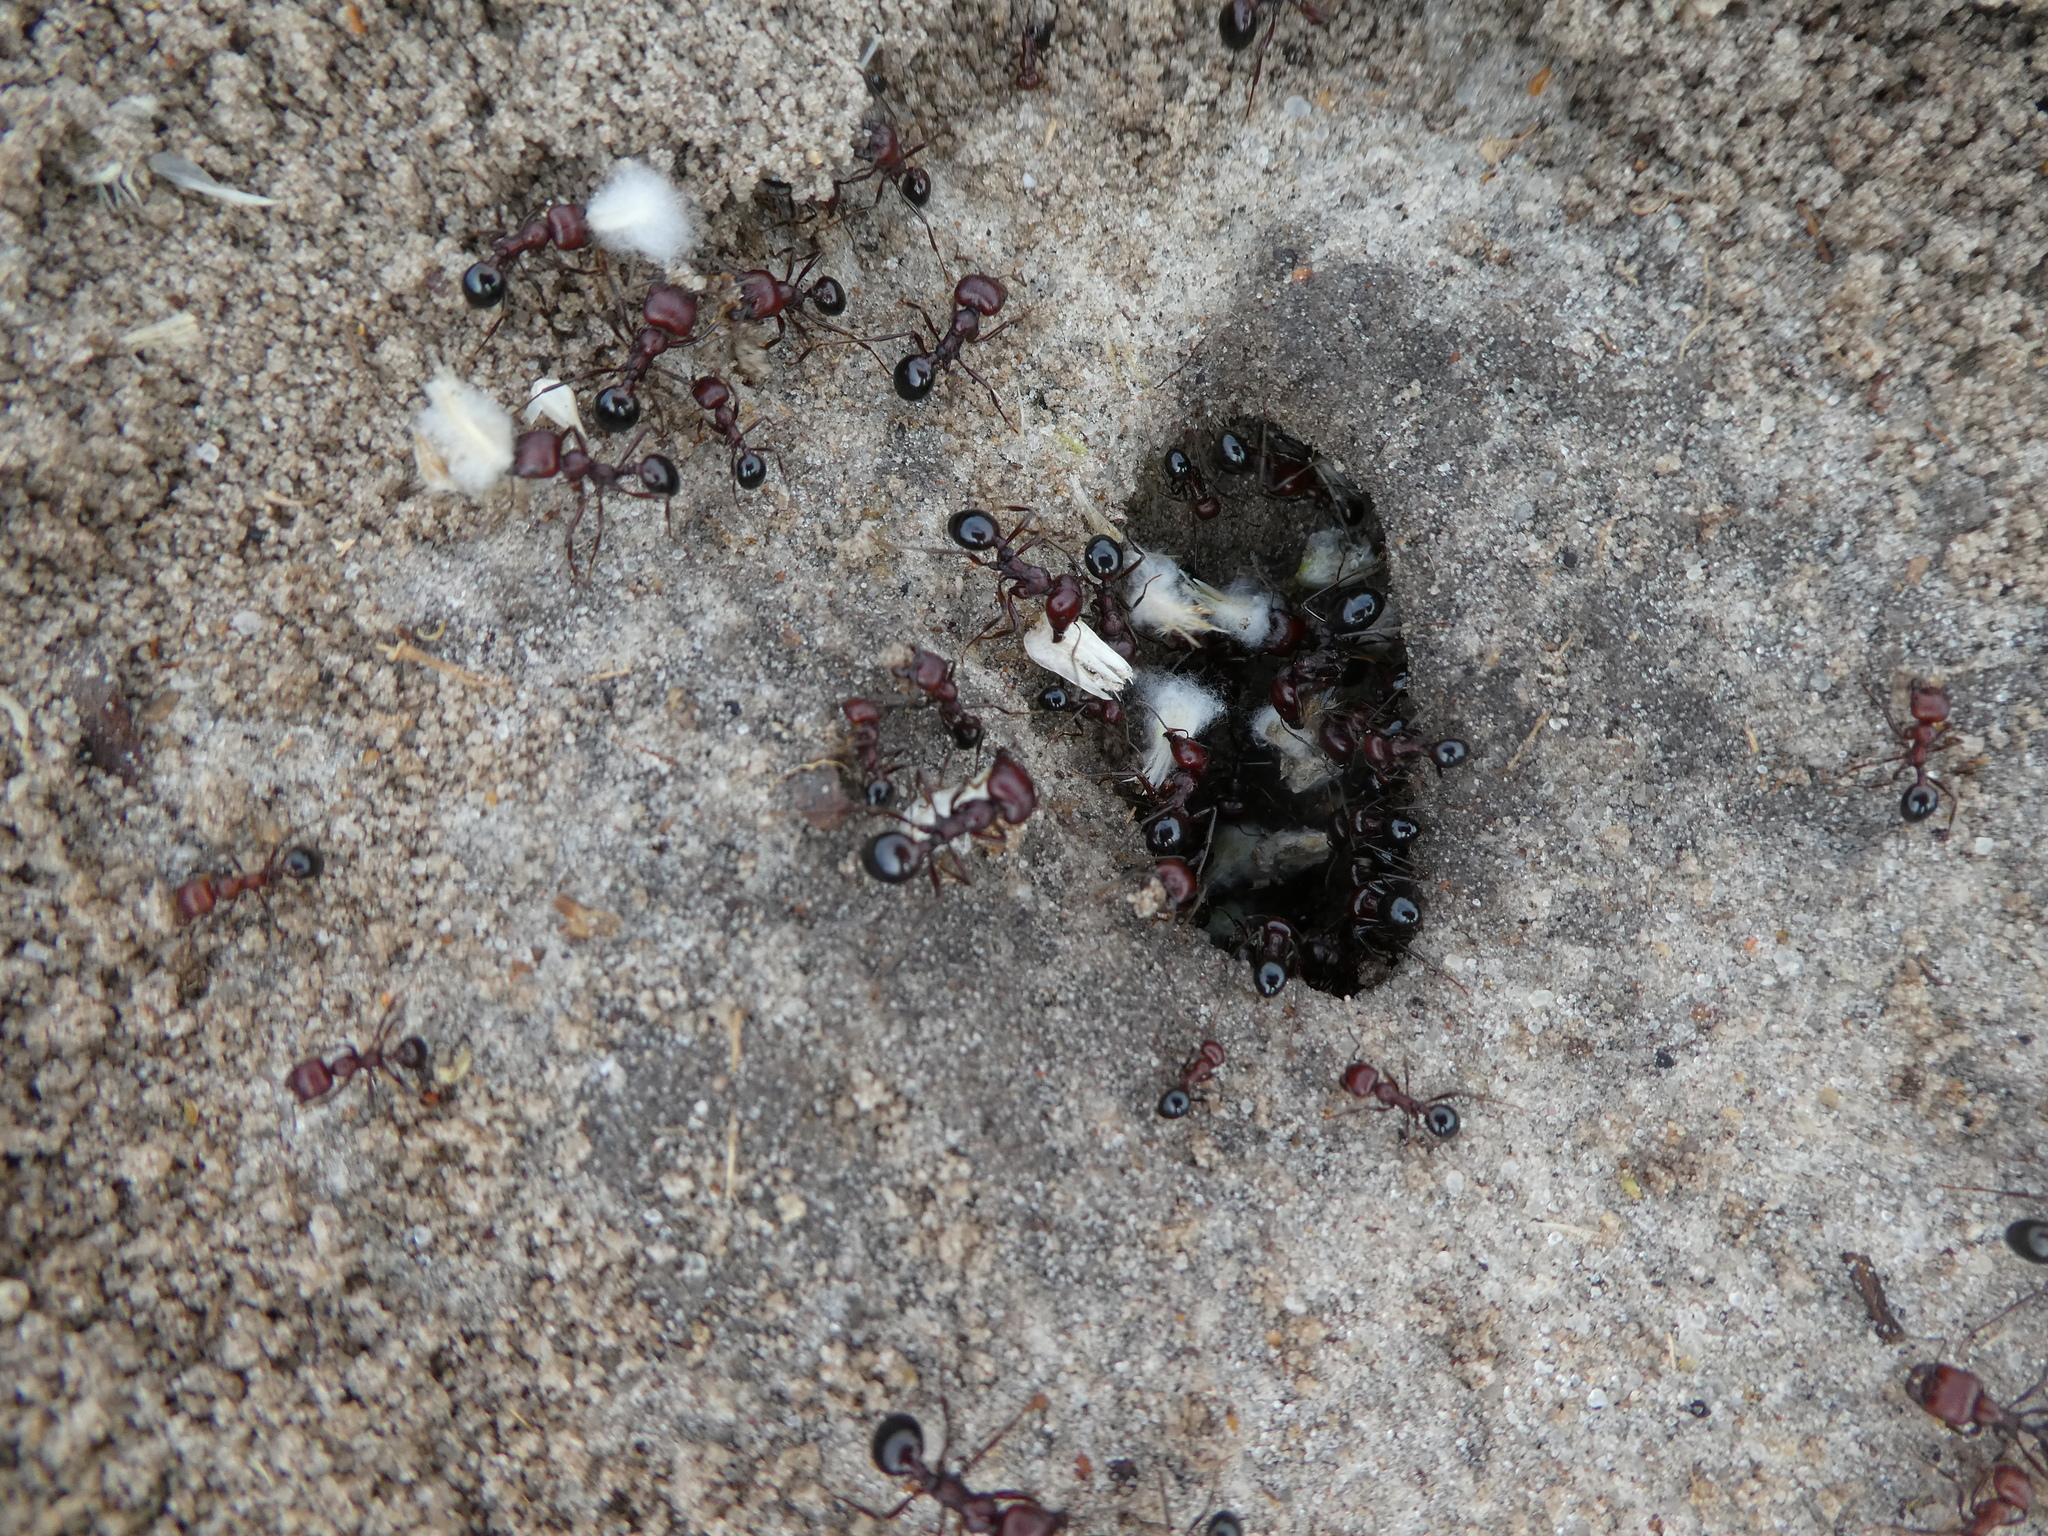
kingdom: Animalia
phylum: Arthropoda
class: Insecta
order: Hymenoptera
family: Formicidae
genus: Messor
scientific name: Messor striatifrons
